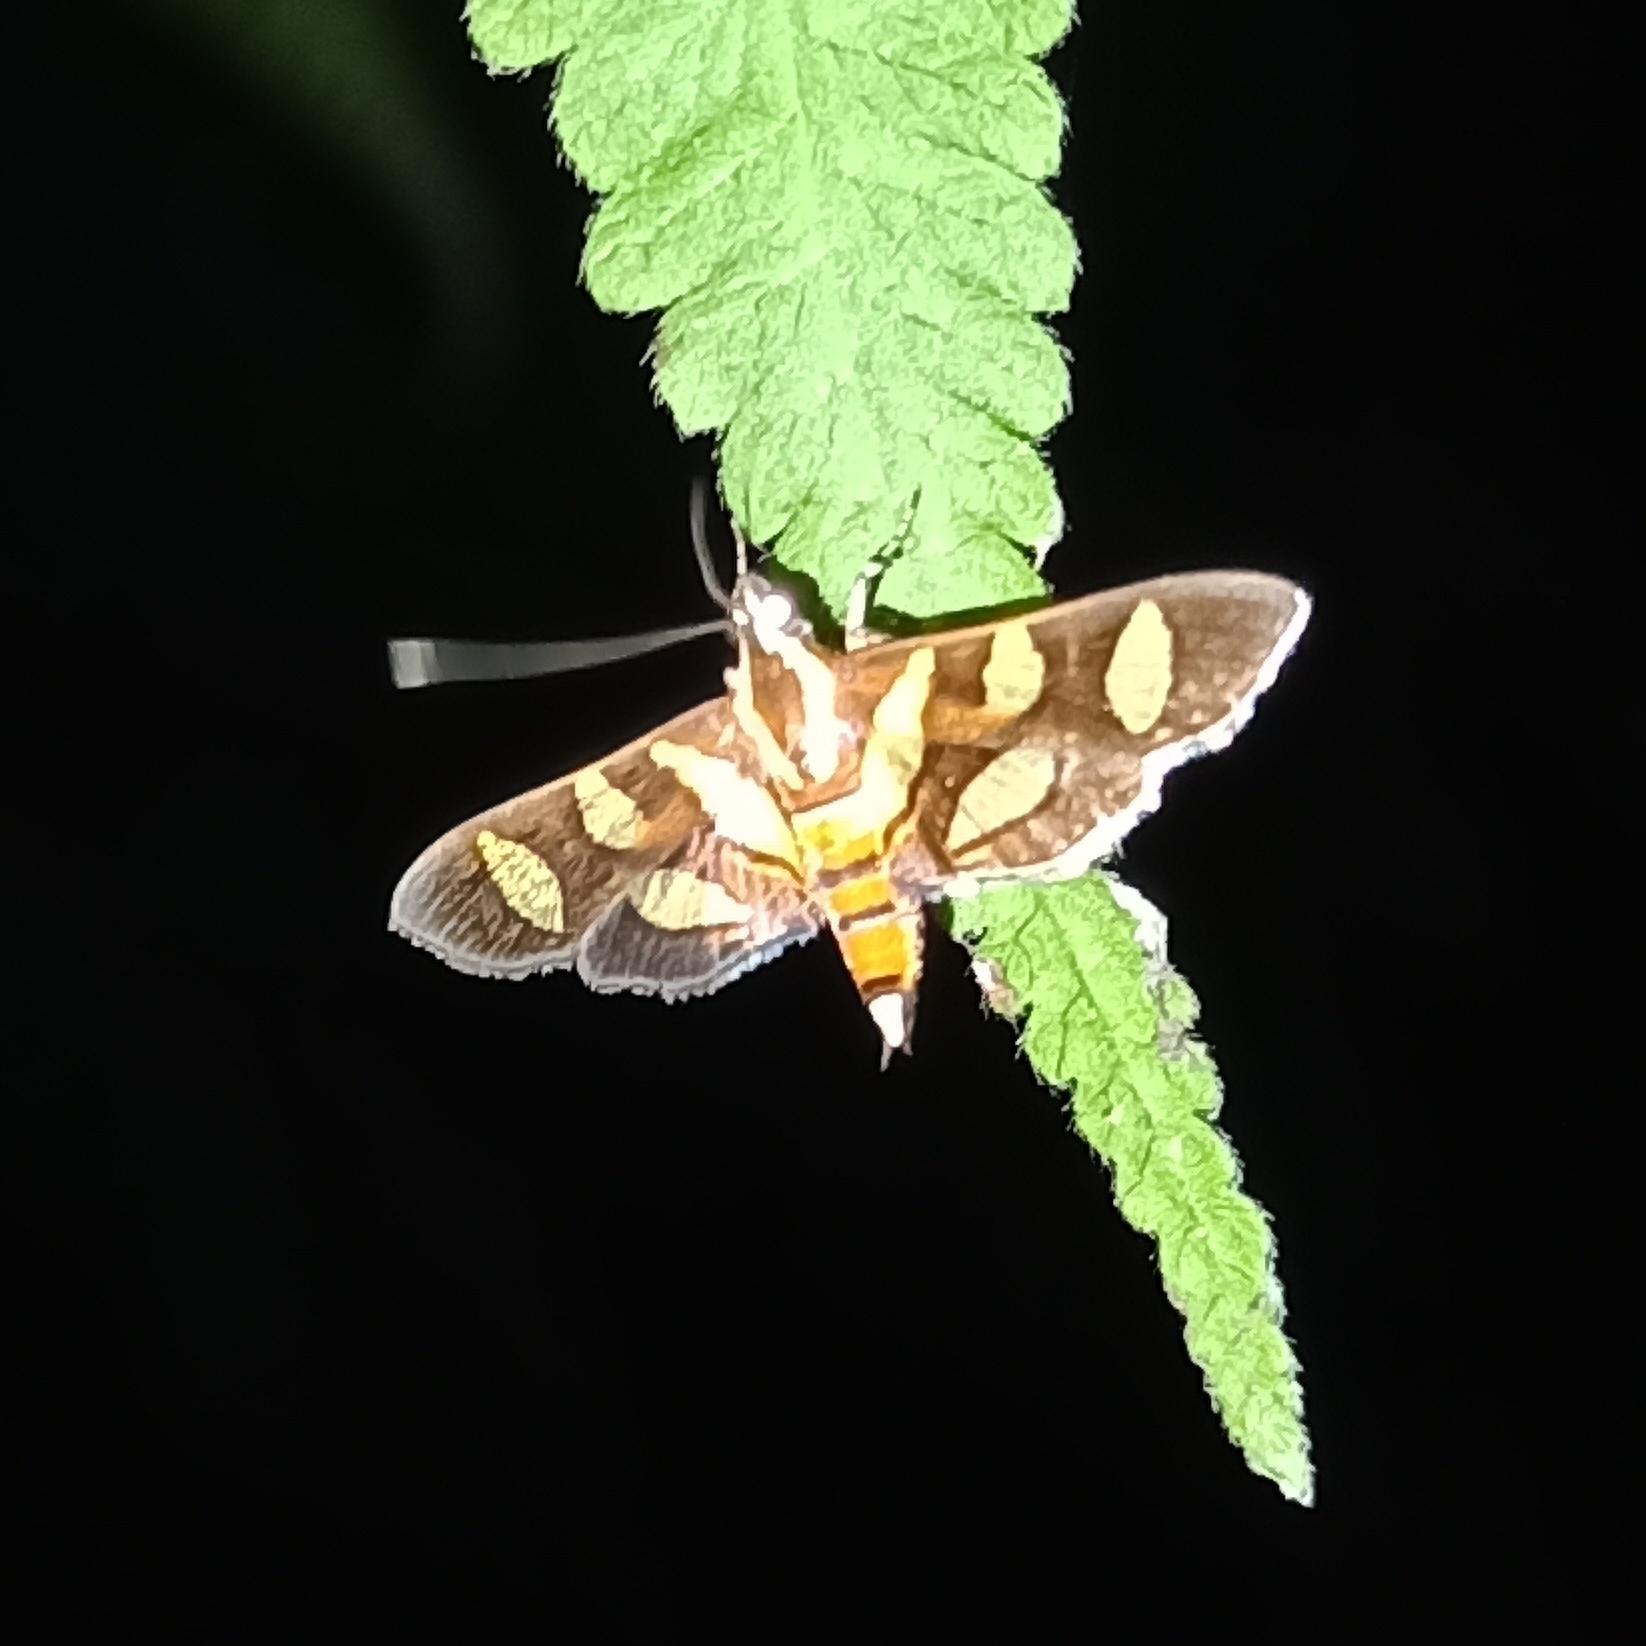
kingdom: Animalia
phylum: Arthropoda
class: Insecta
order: Lepidoptera
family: Crambidae
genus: Syngamia
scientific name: Syngamia florella
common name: Orange-spotted flower moth
